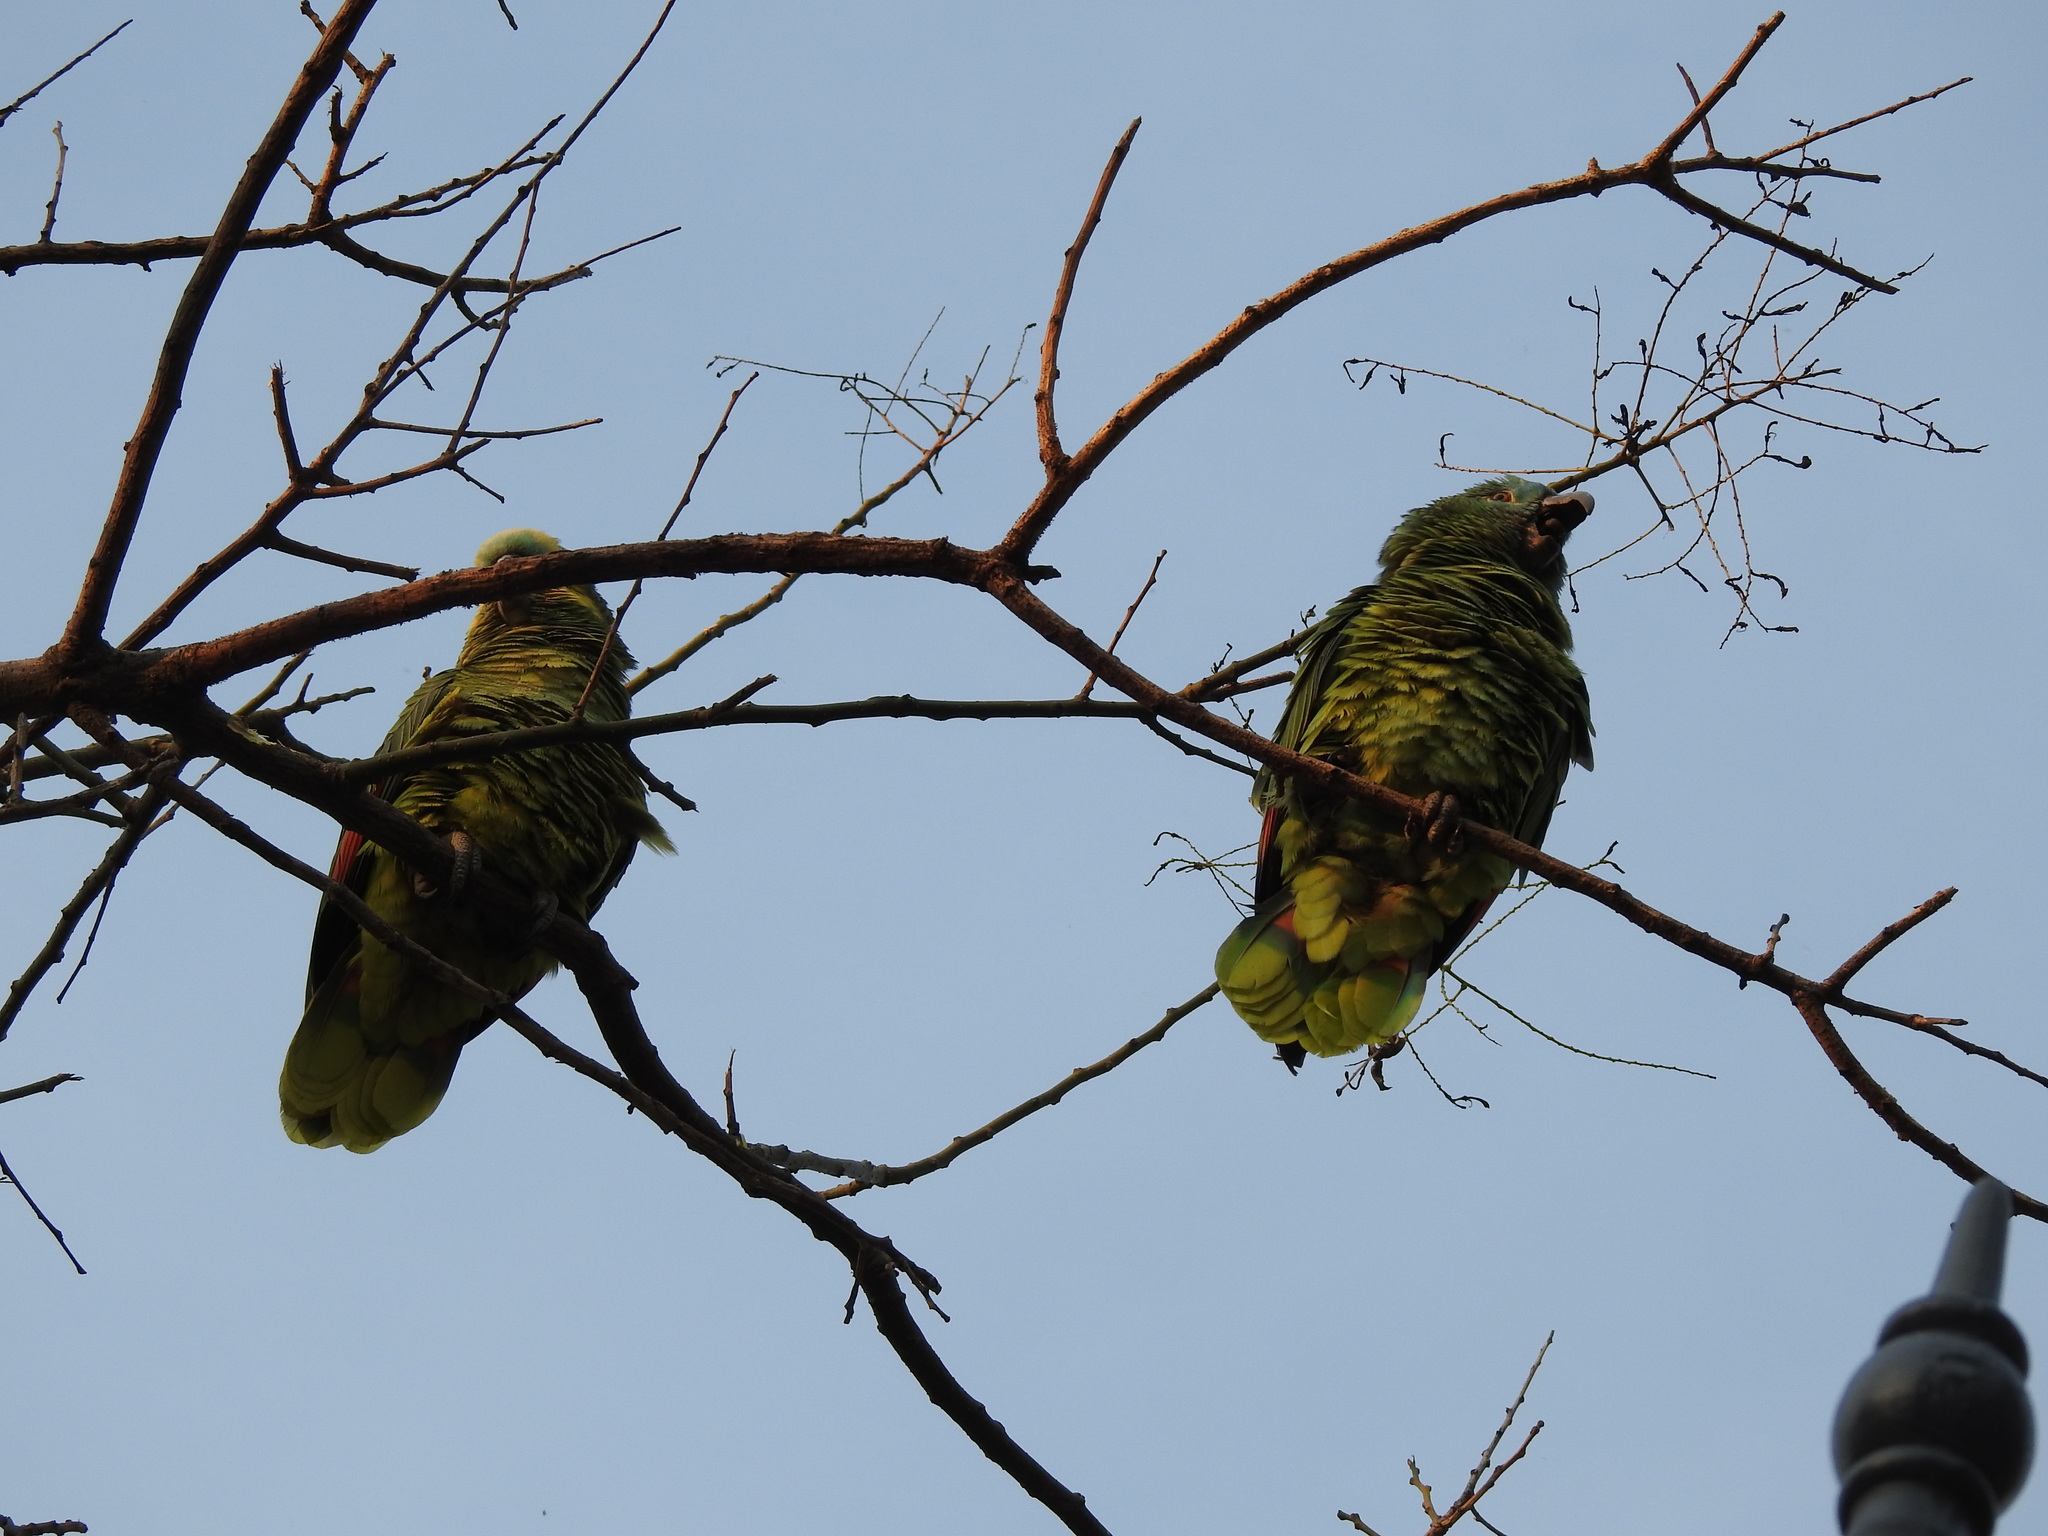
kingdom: Animalia
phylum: Chordata
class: Aves
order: Psittaciformes
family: Psittacidae
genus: Amazona
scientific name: Amazona aestiva
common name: Turquoise-fronted amazon
